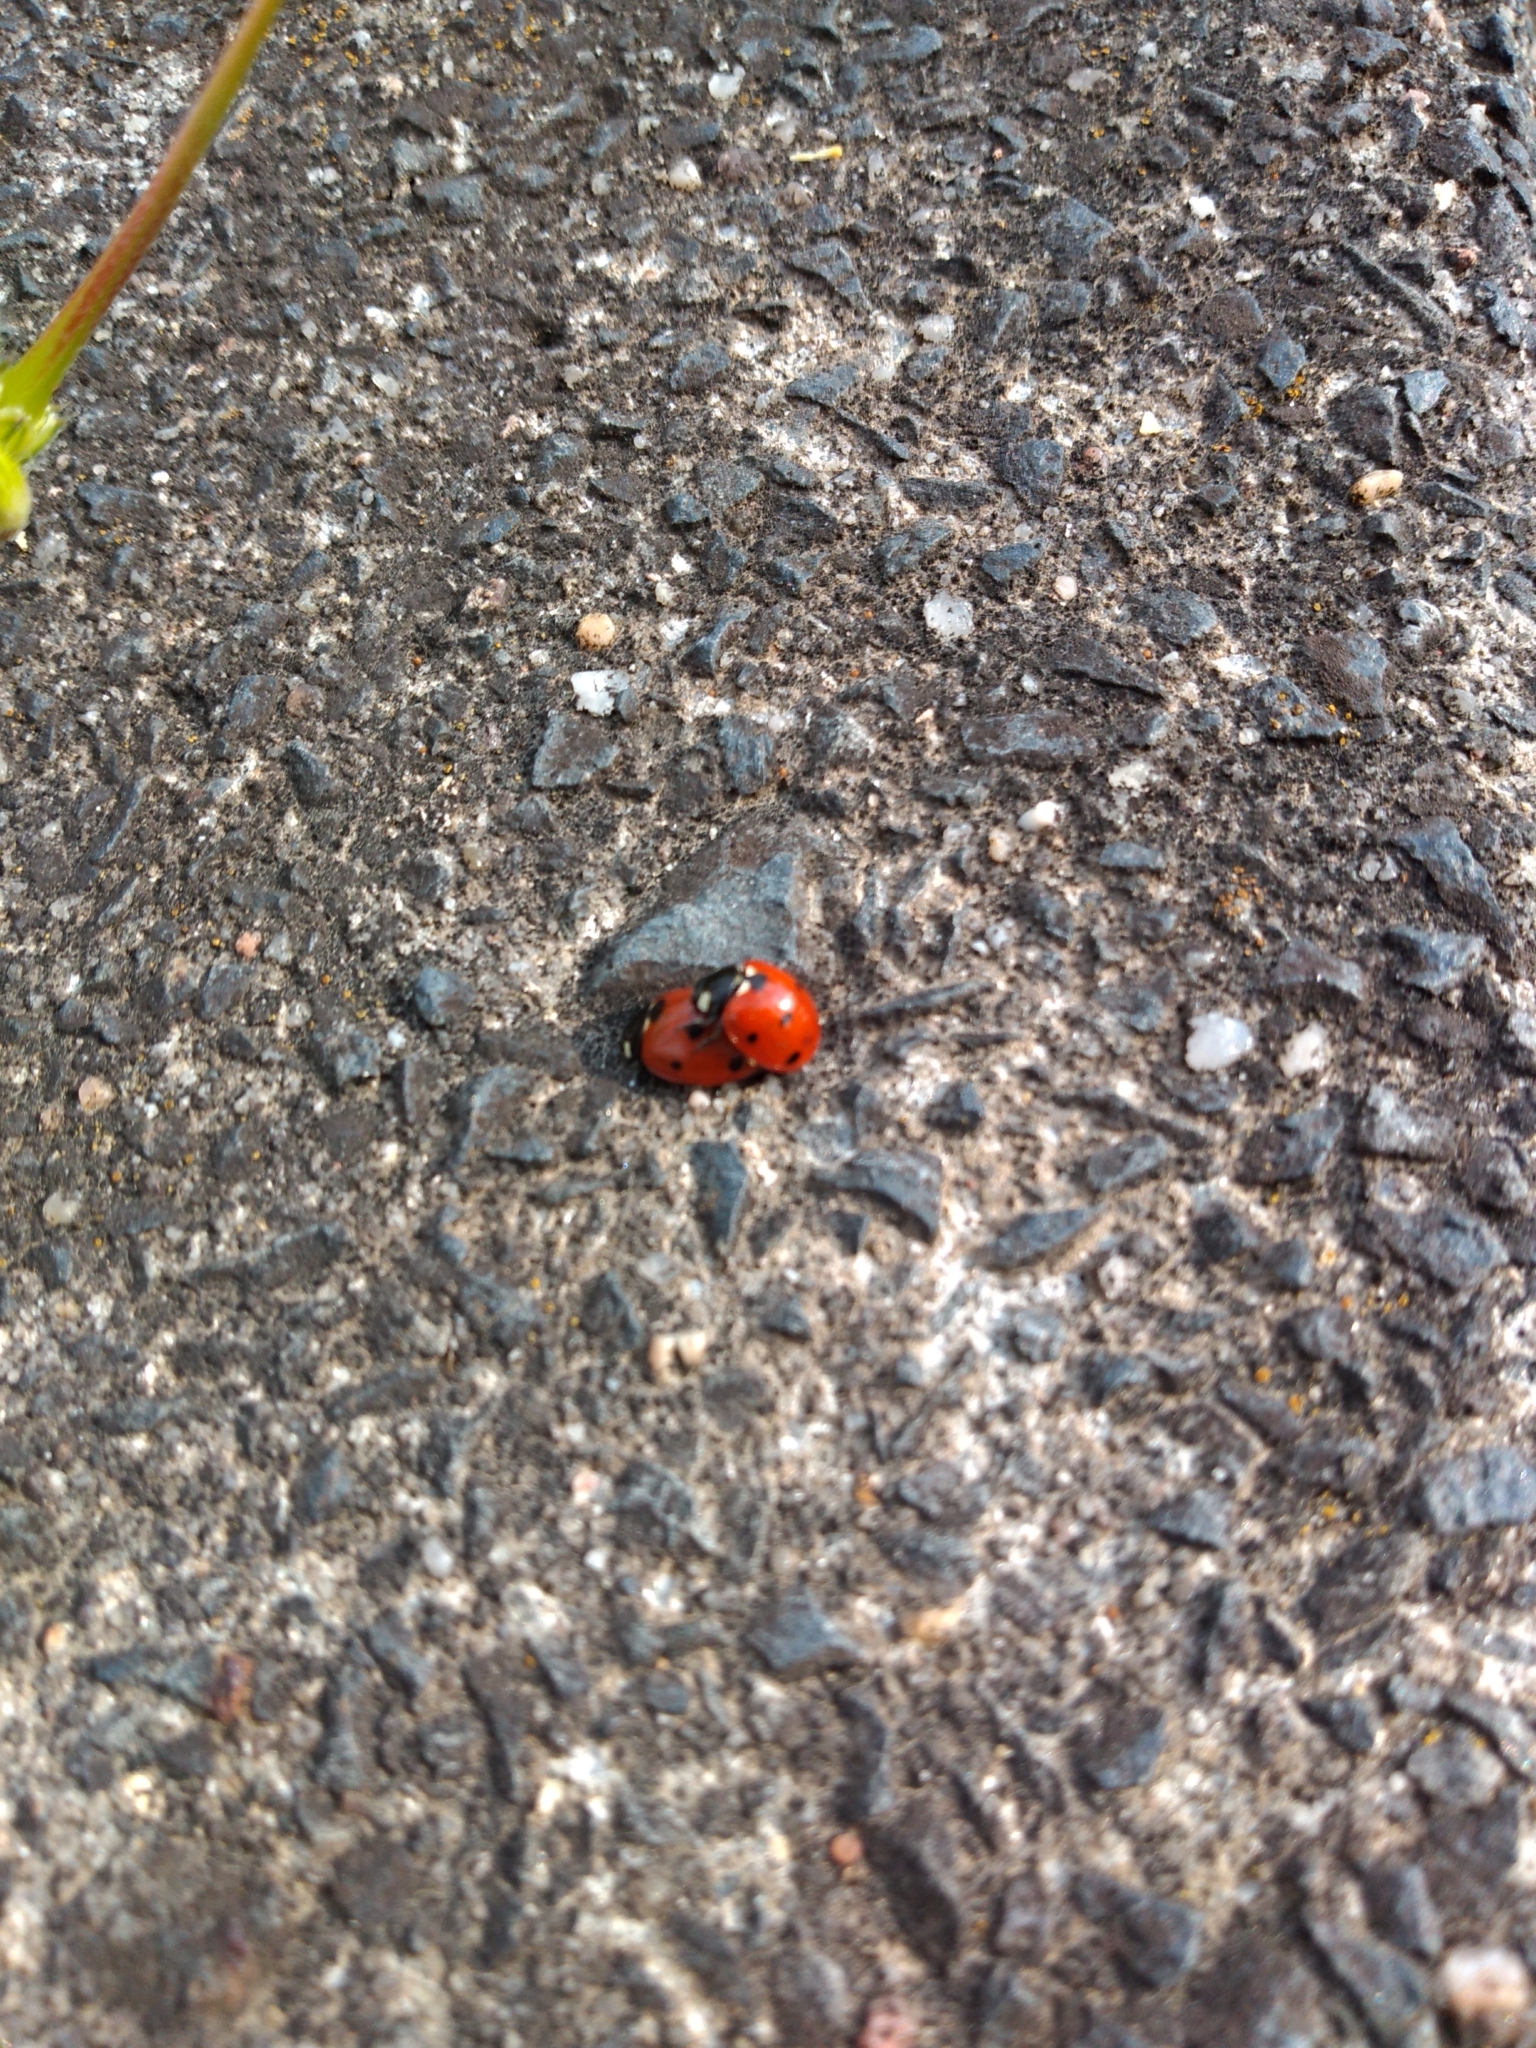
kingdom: Animalia
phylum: Arthropoda
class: Insecta
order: Coleoptera
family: Coccinellidae
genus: Coccinella
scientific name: Coccinella septempunctata
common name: Sevenspotted lady beetle
